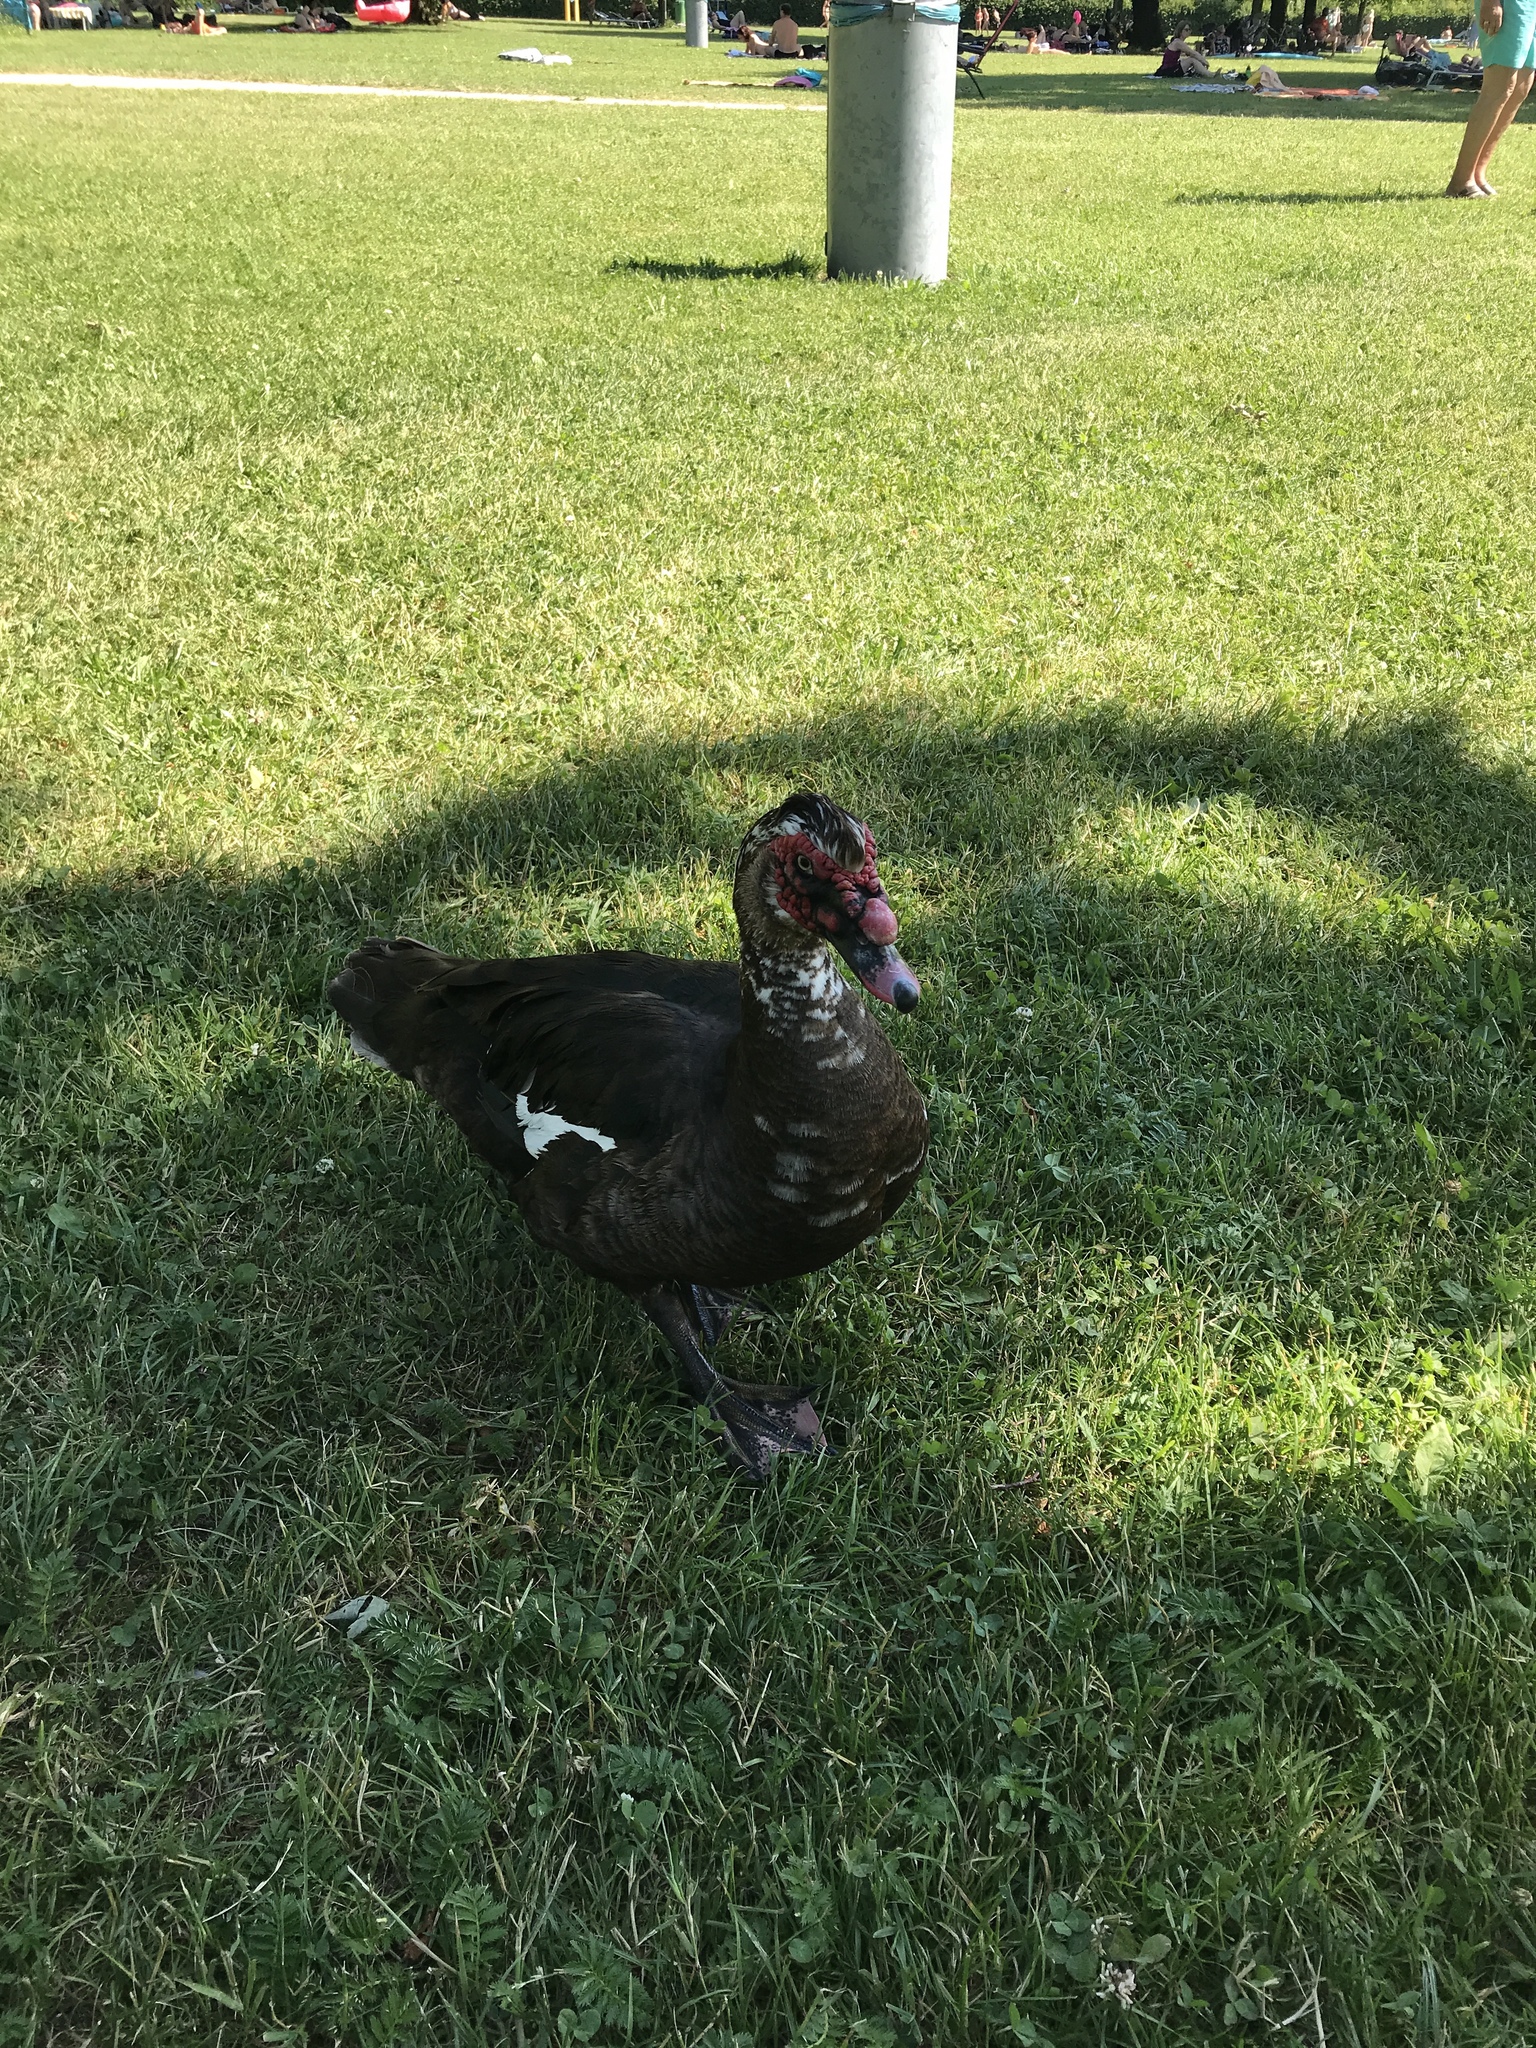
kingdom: Animalia
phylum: Chordata
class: Aves
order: Anseriformes
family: Anatidae
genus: Cairina
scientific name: Cairina moschata
